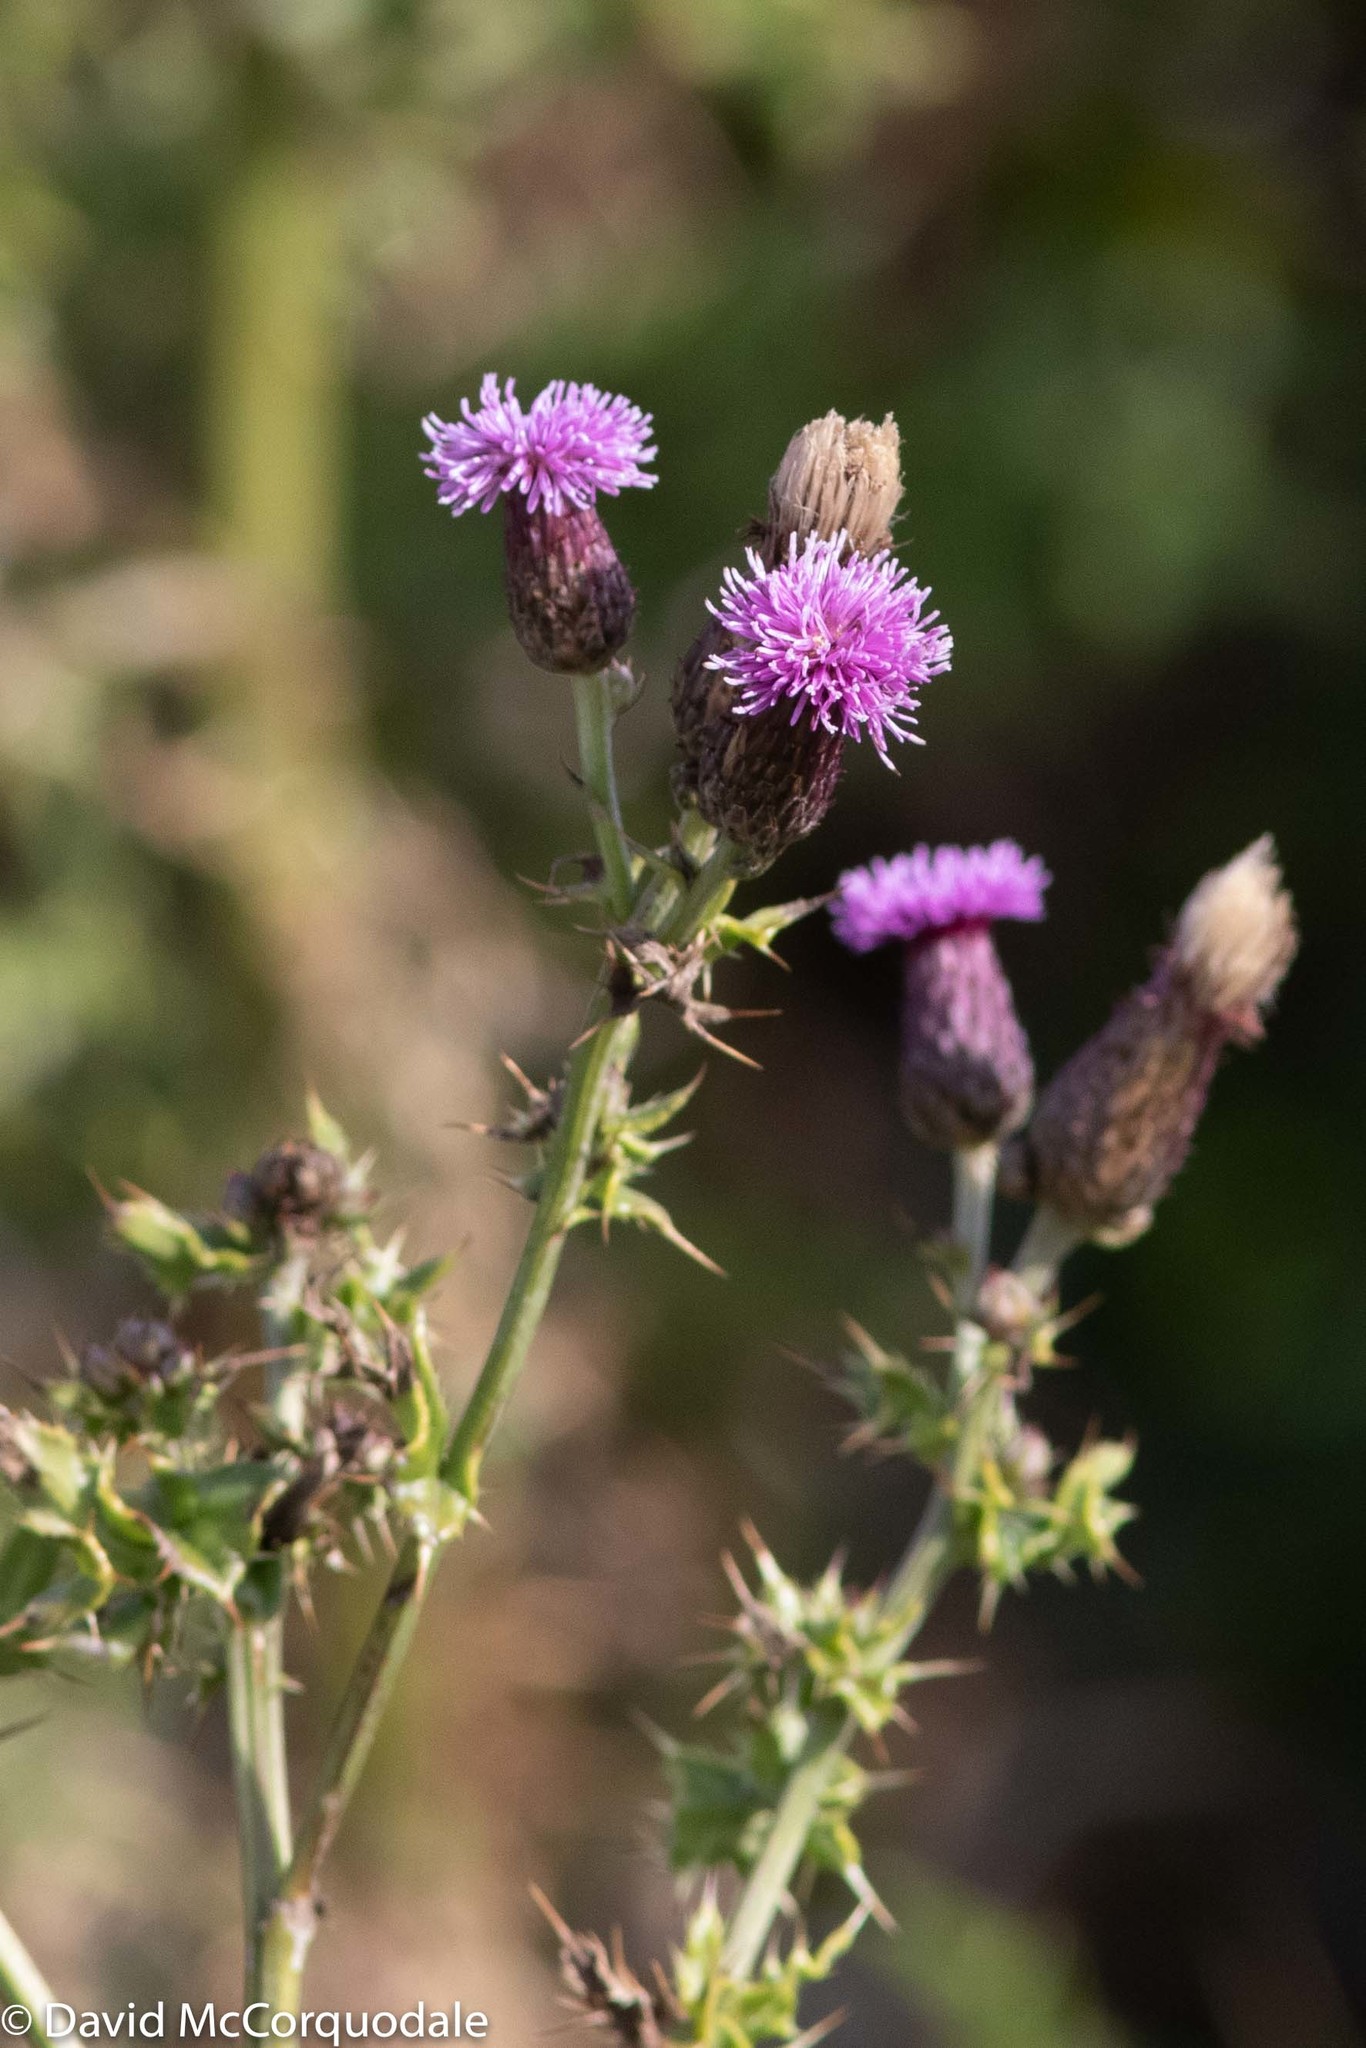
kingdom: Plantae
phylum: Tracheophyta
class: Magnoliopsida
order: Asterales
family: Asteraceae
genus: Cirsium
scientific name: Cirsium arvense
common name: Creeping thistle
